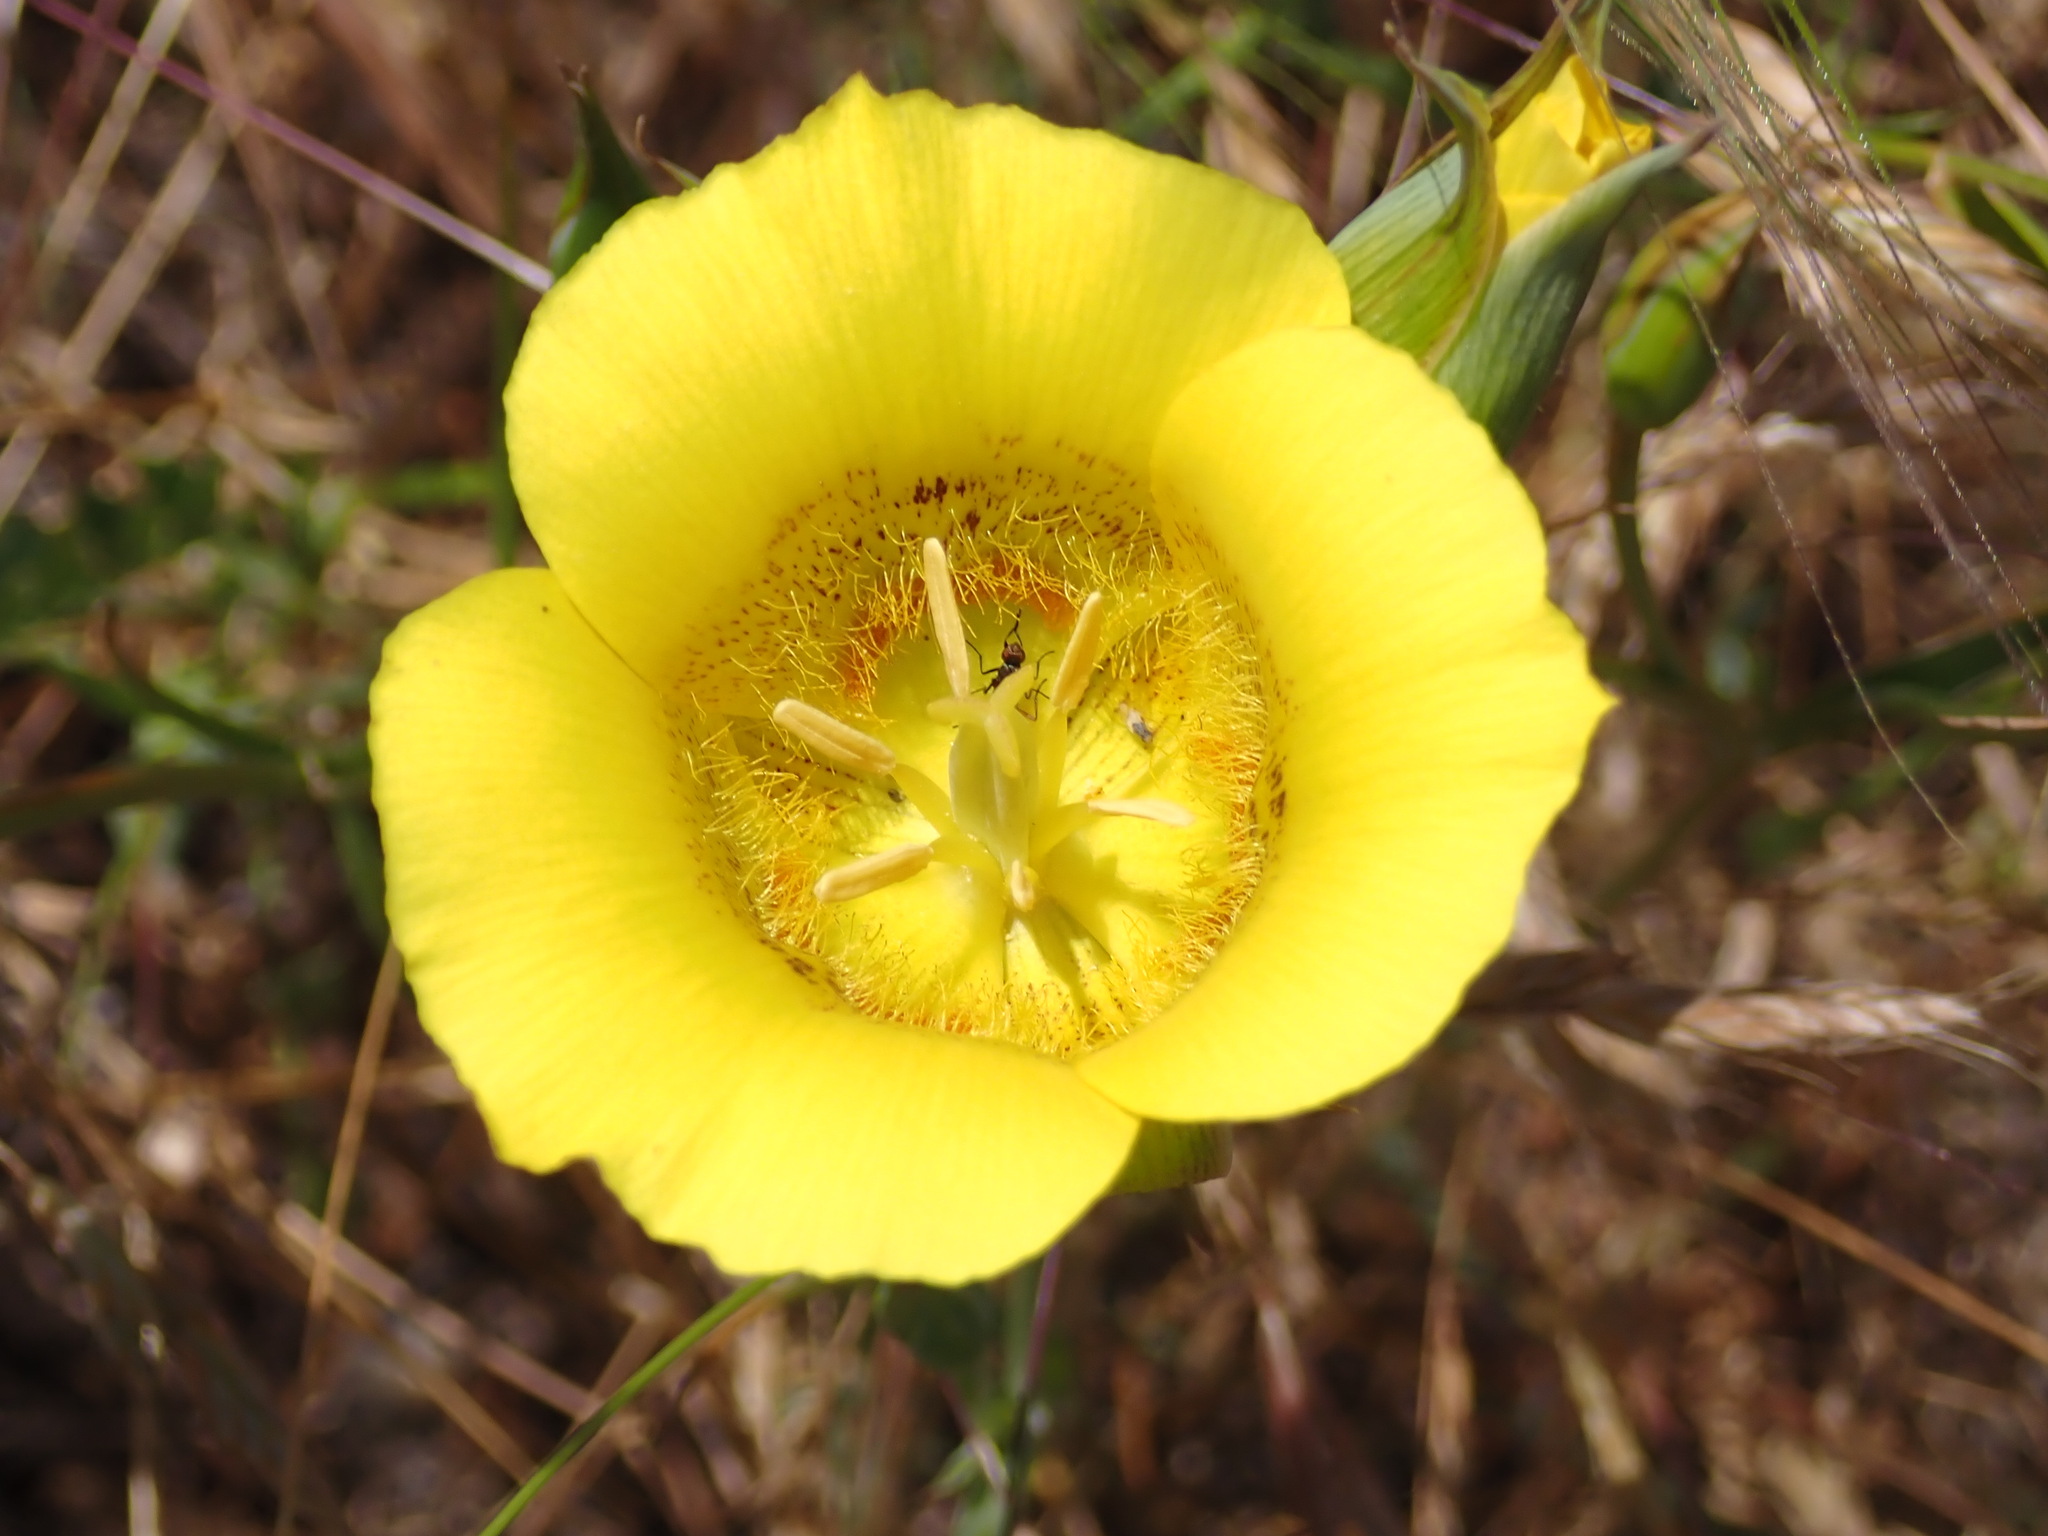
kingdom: Plantae
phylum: Tracheophyta
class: Liliopsida
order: Liliales
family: Liliaceae
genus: Calochortus
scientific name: Calochortus luteus
